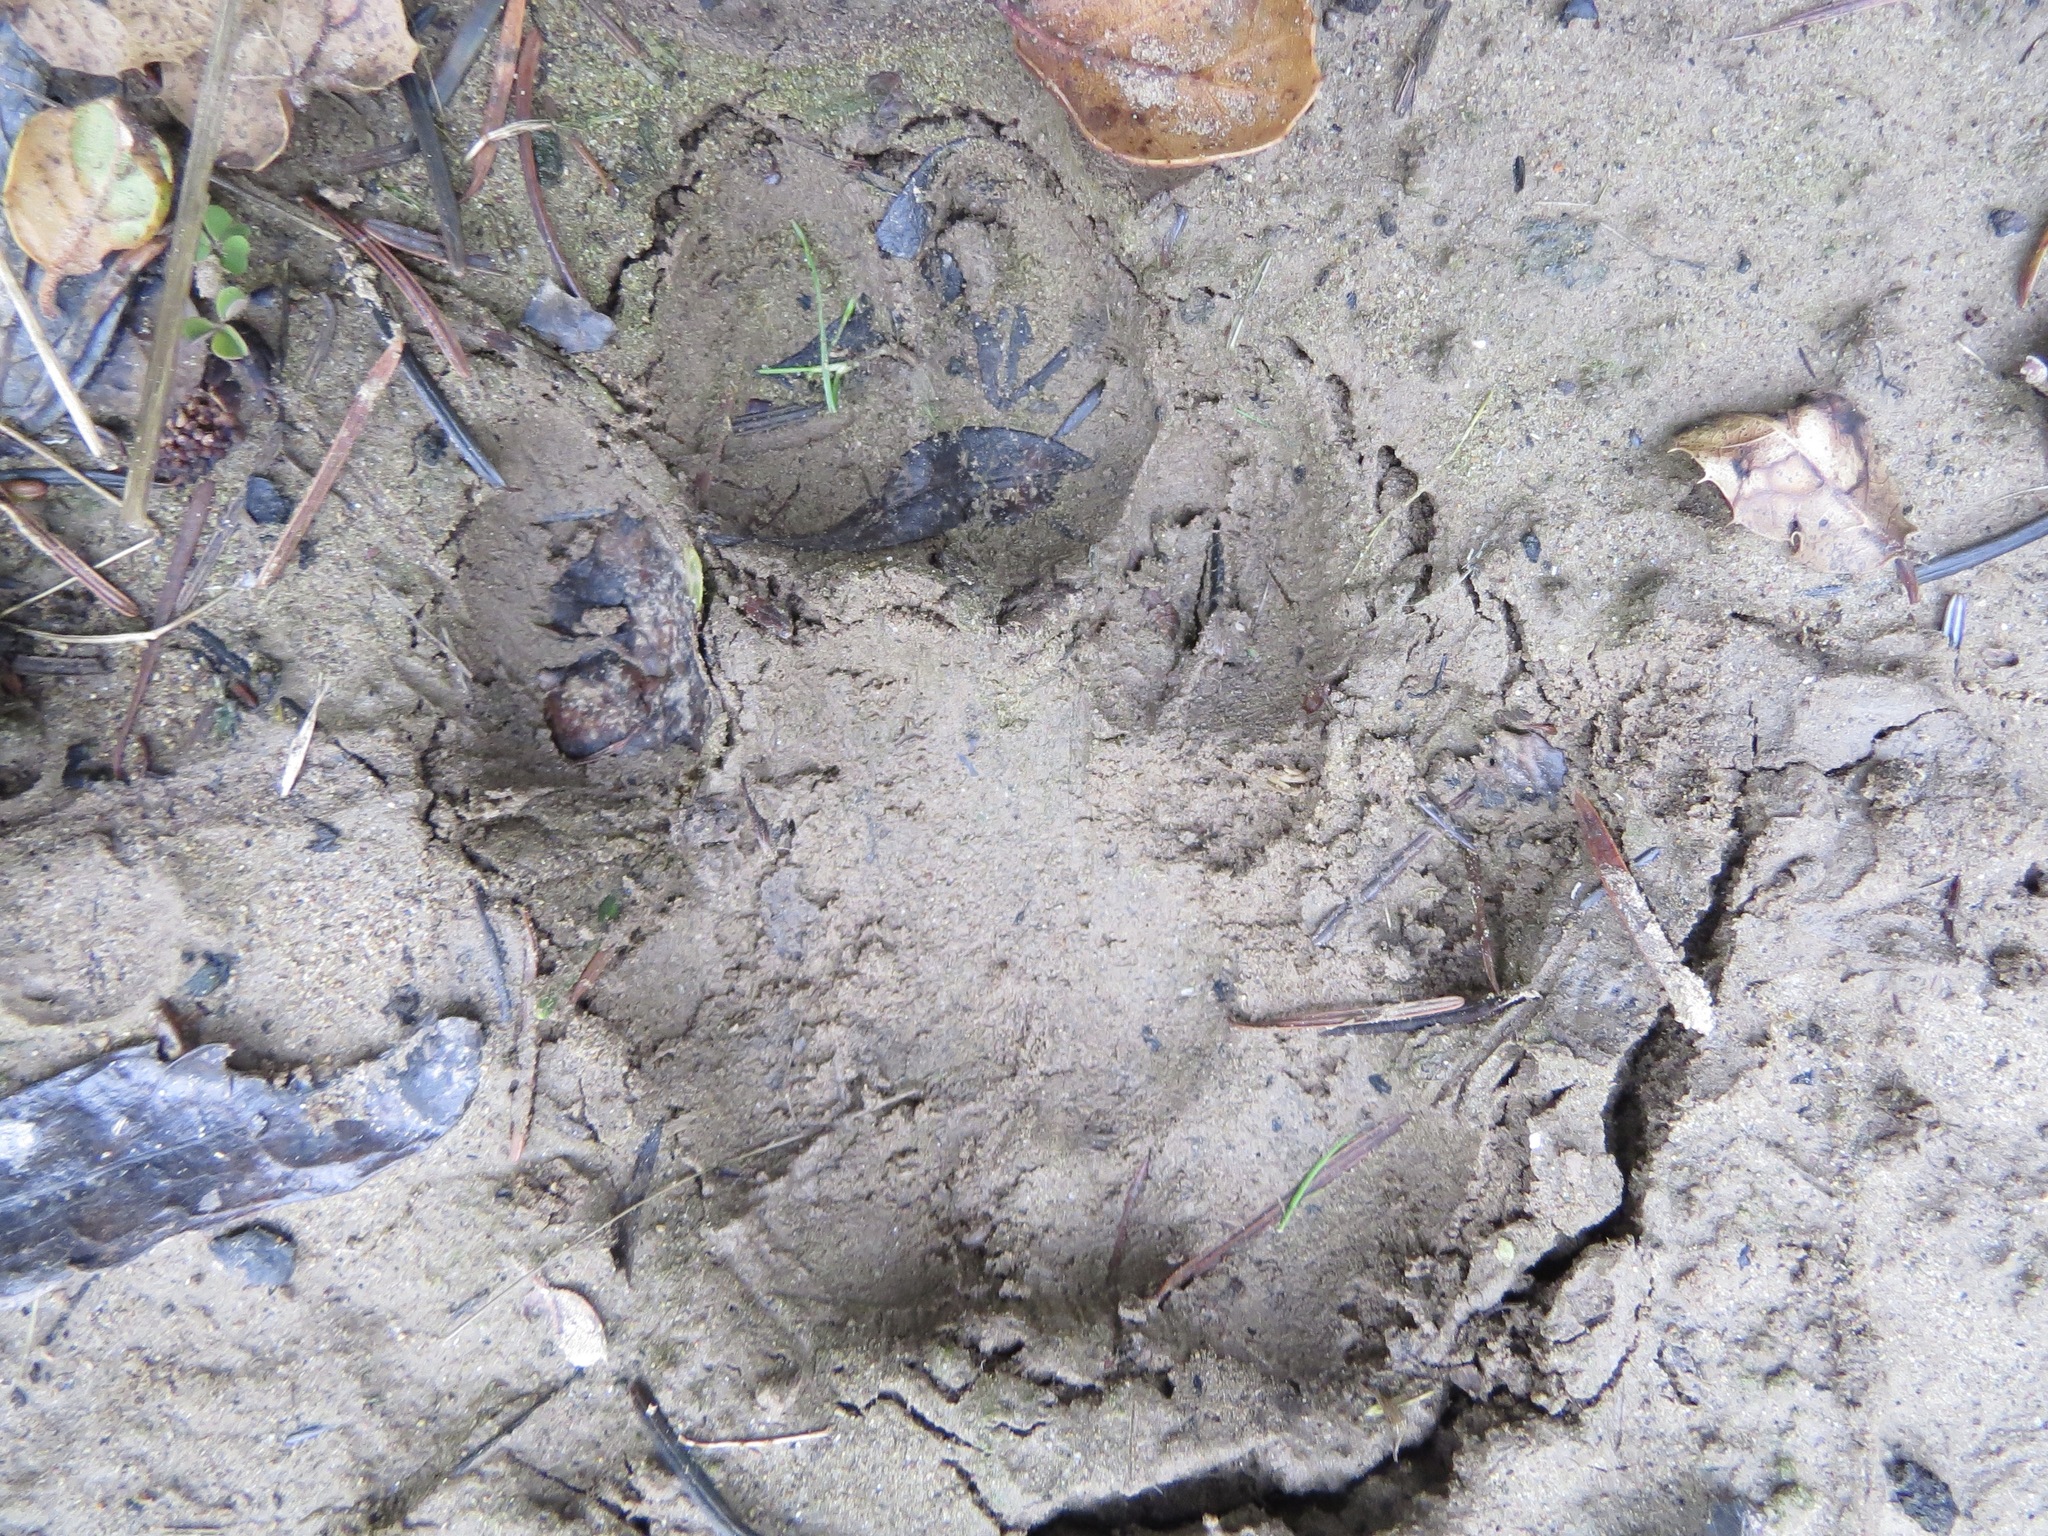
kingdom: Animalia
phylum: Chordata
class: Mammalia
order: Carnivora
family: Felidae
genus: Puma
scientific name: Puma concolor
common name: Puma
